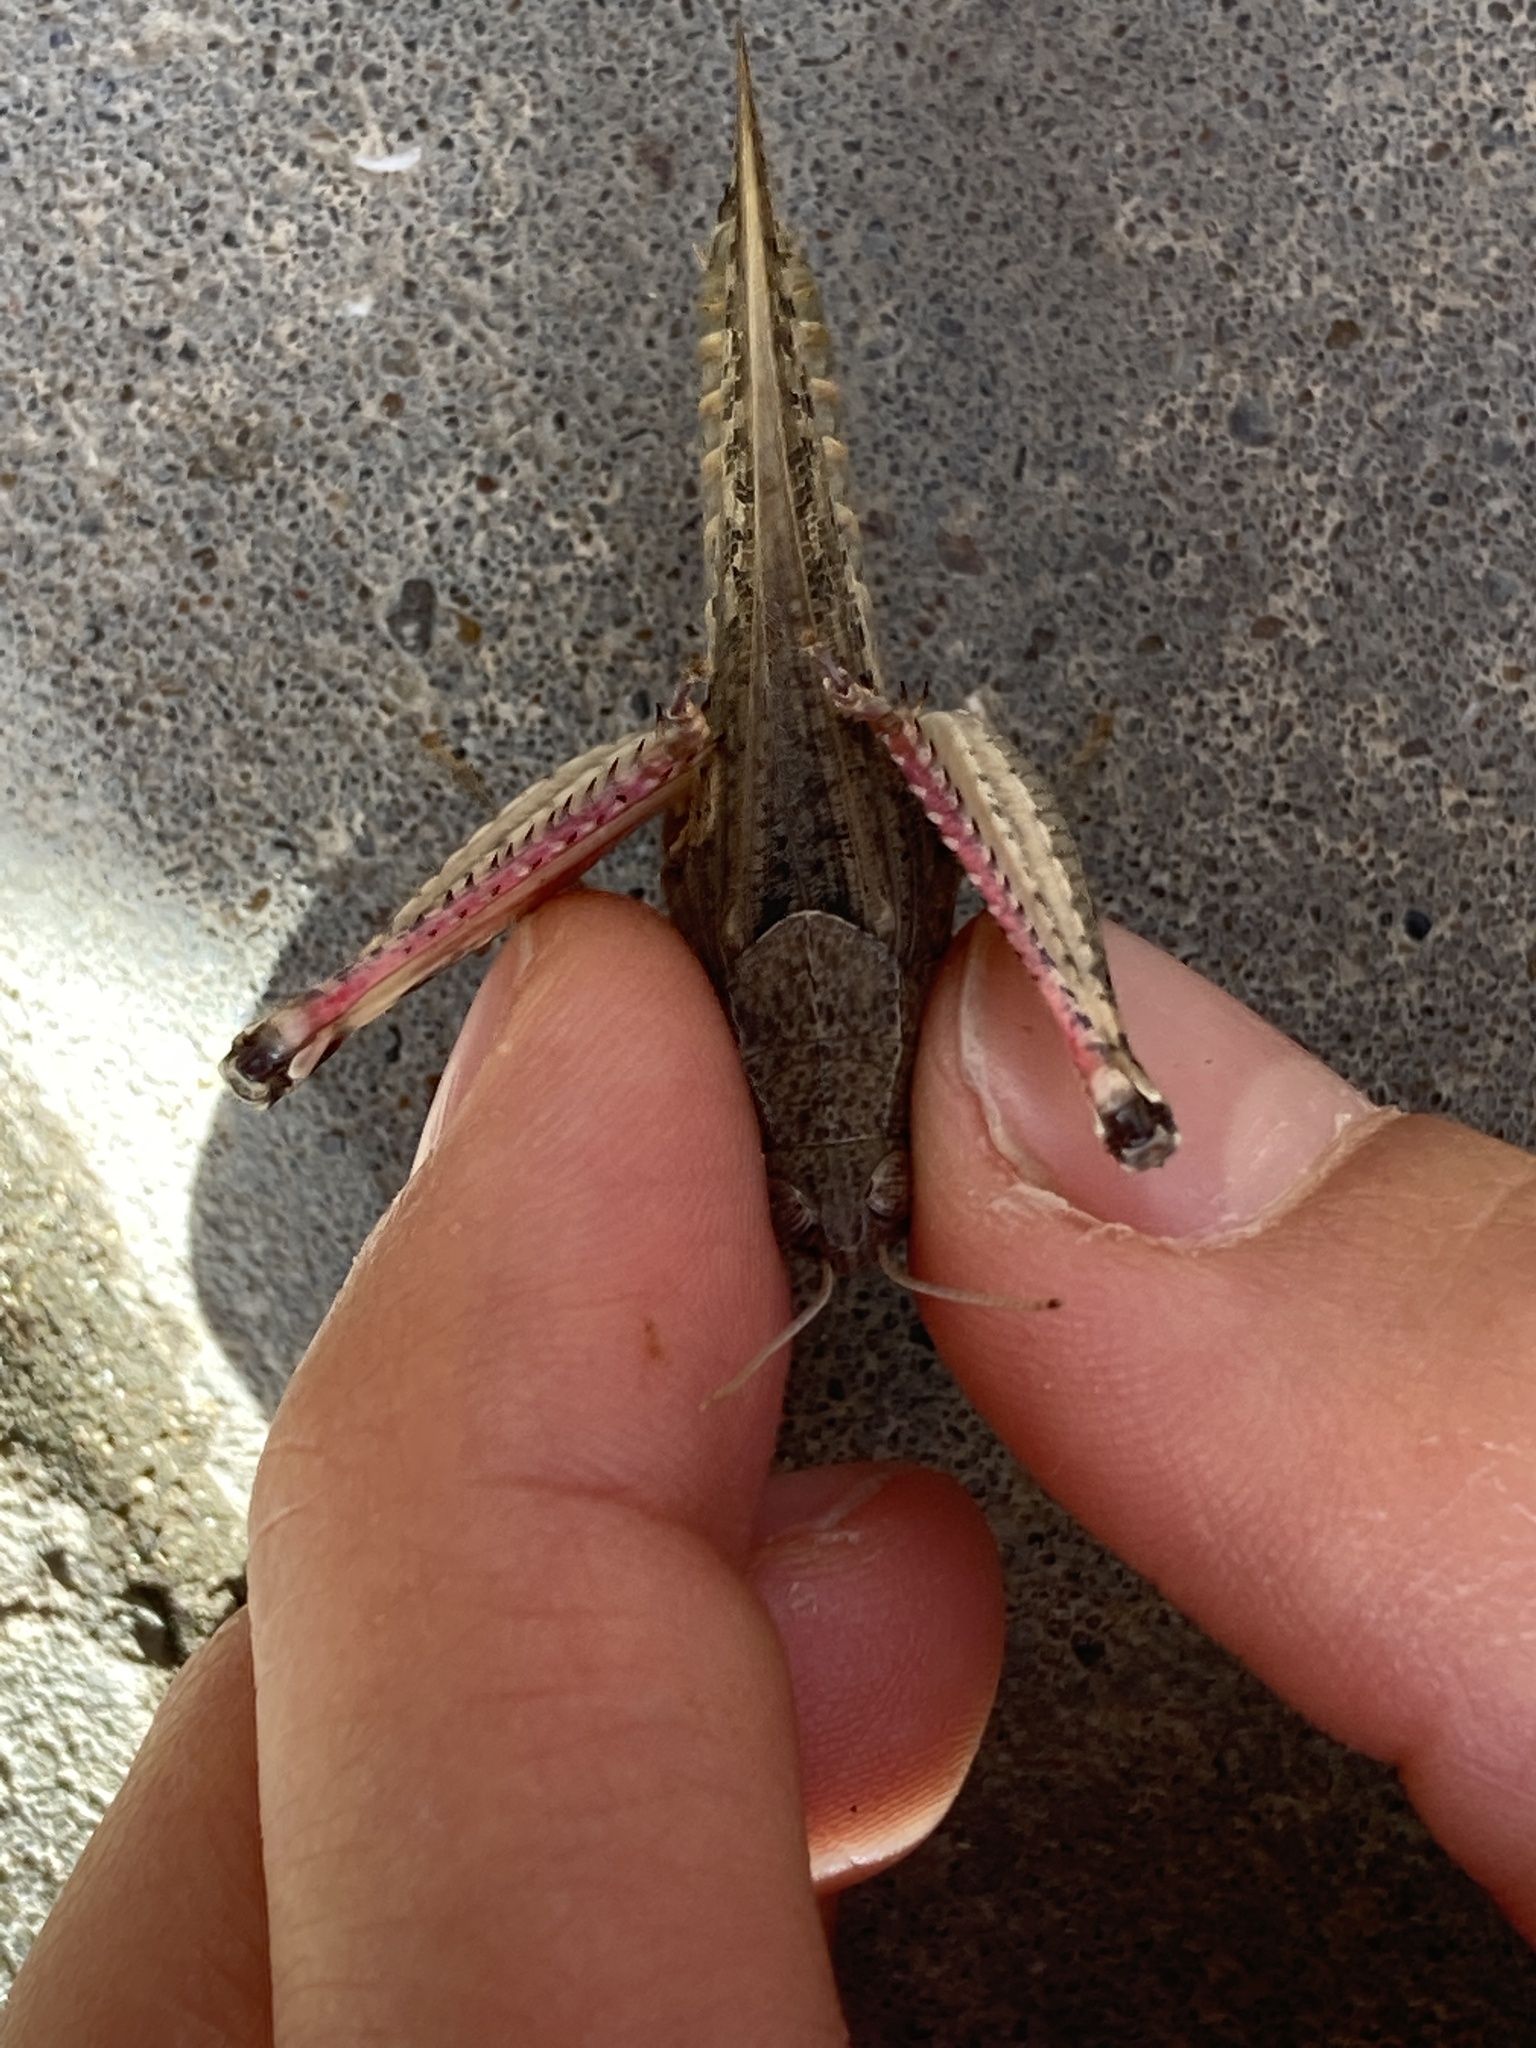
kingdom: Animalia
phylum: Arthropoda
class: Insecta
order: Orthoptera
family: Acrididae
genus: Calliptamus
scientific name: Calliptamus italicus
